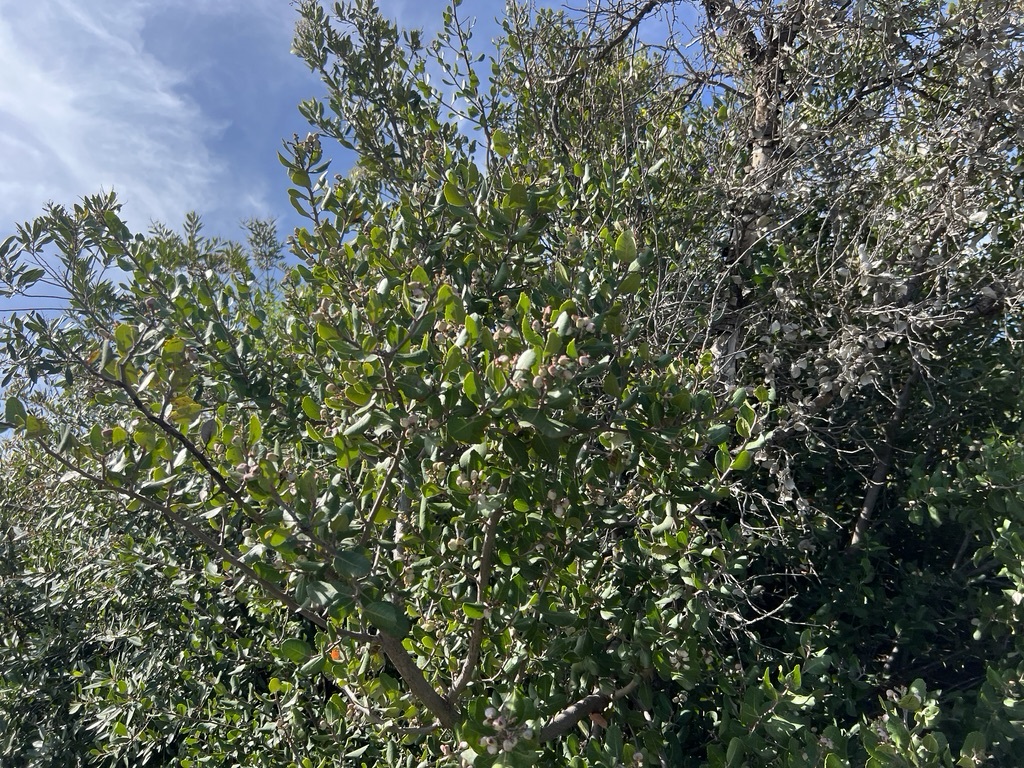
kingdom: Plantae
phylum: Tracheophyta
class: Magnoliopsida
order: Sapindales
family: Anacardiaceae
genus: Rhus
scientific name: Rhus integrifolia
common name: Lemonade sumac
